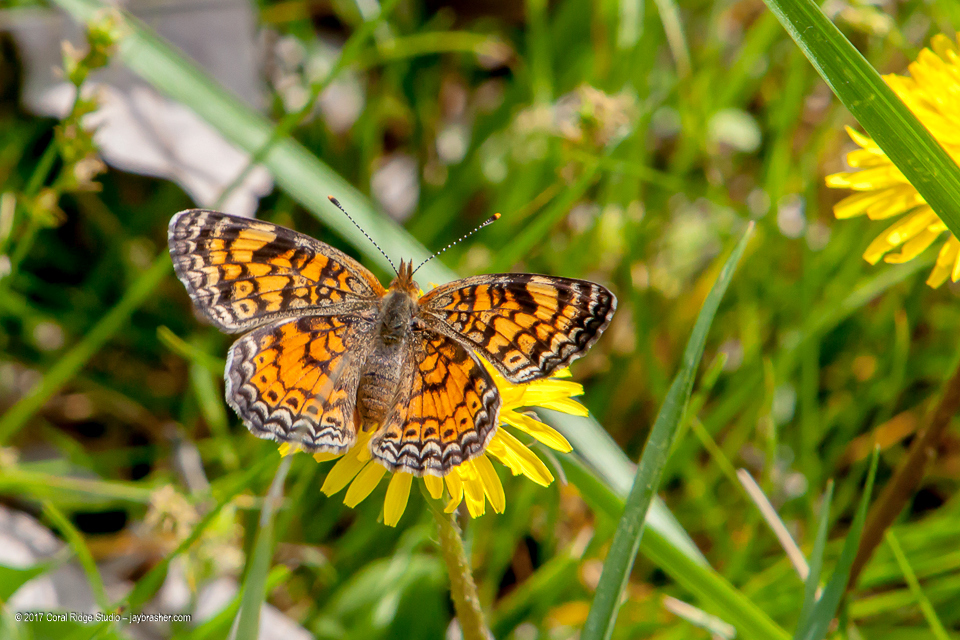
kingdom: Animalia
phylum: Arthropoda
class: Insecta
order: Lepidoptera
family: Nymphalidae
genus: Phyciodes
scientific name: Phyciodes tharos
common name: Pearl crescent
